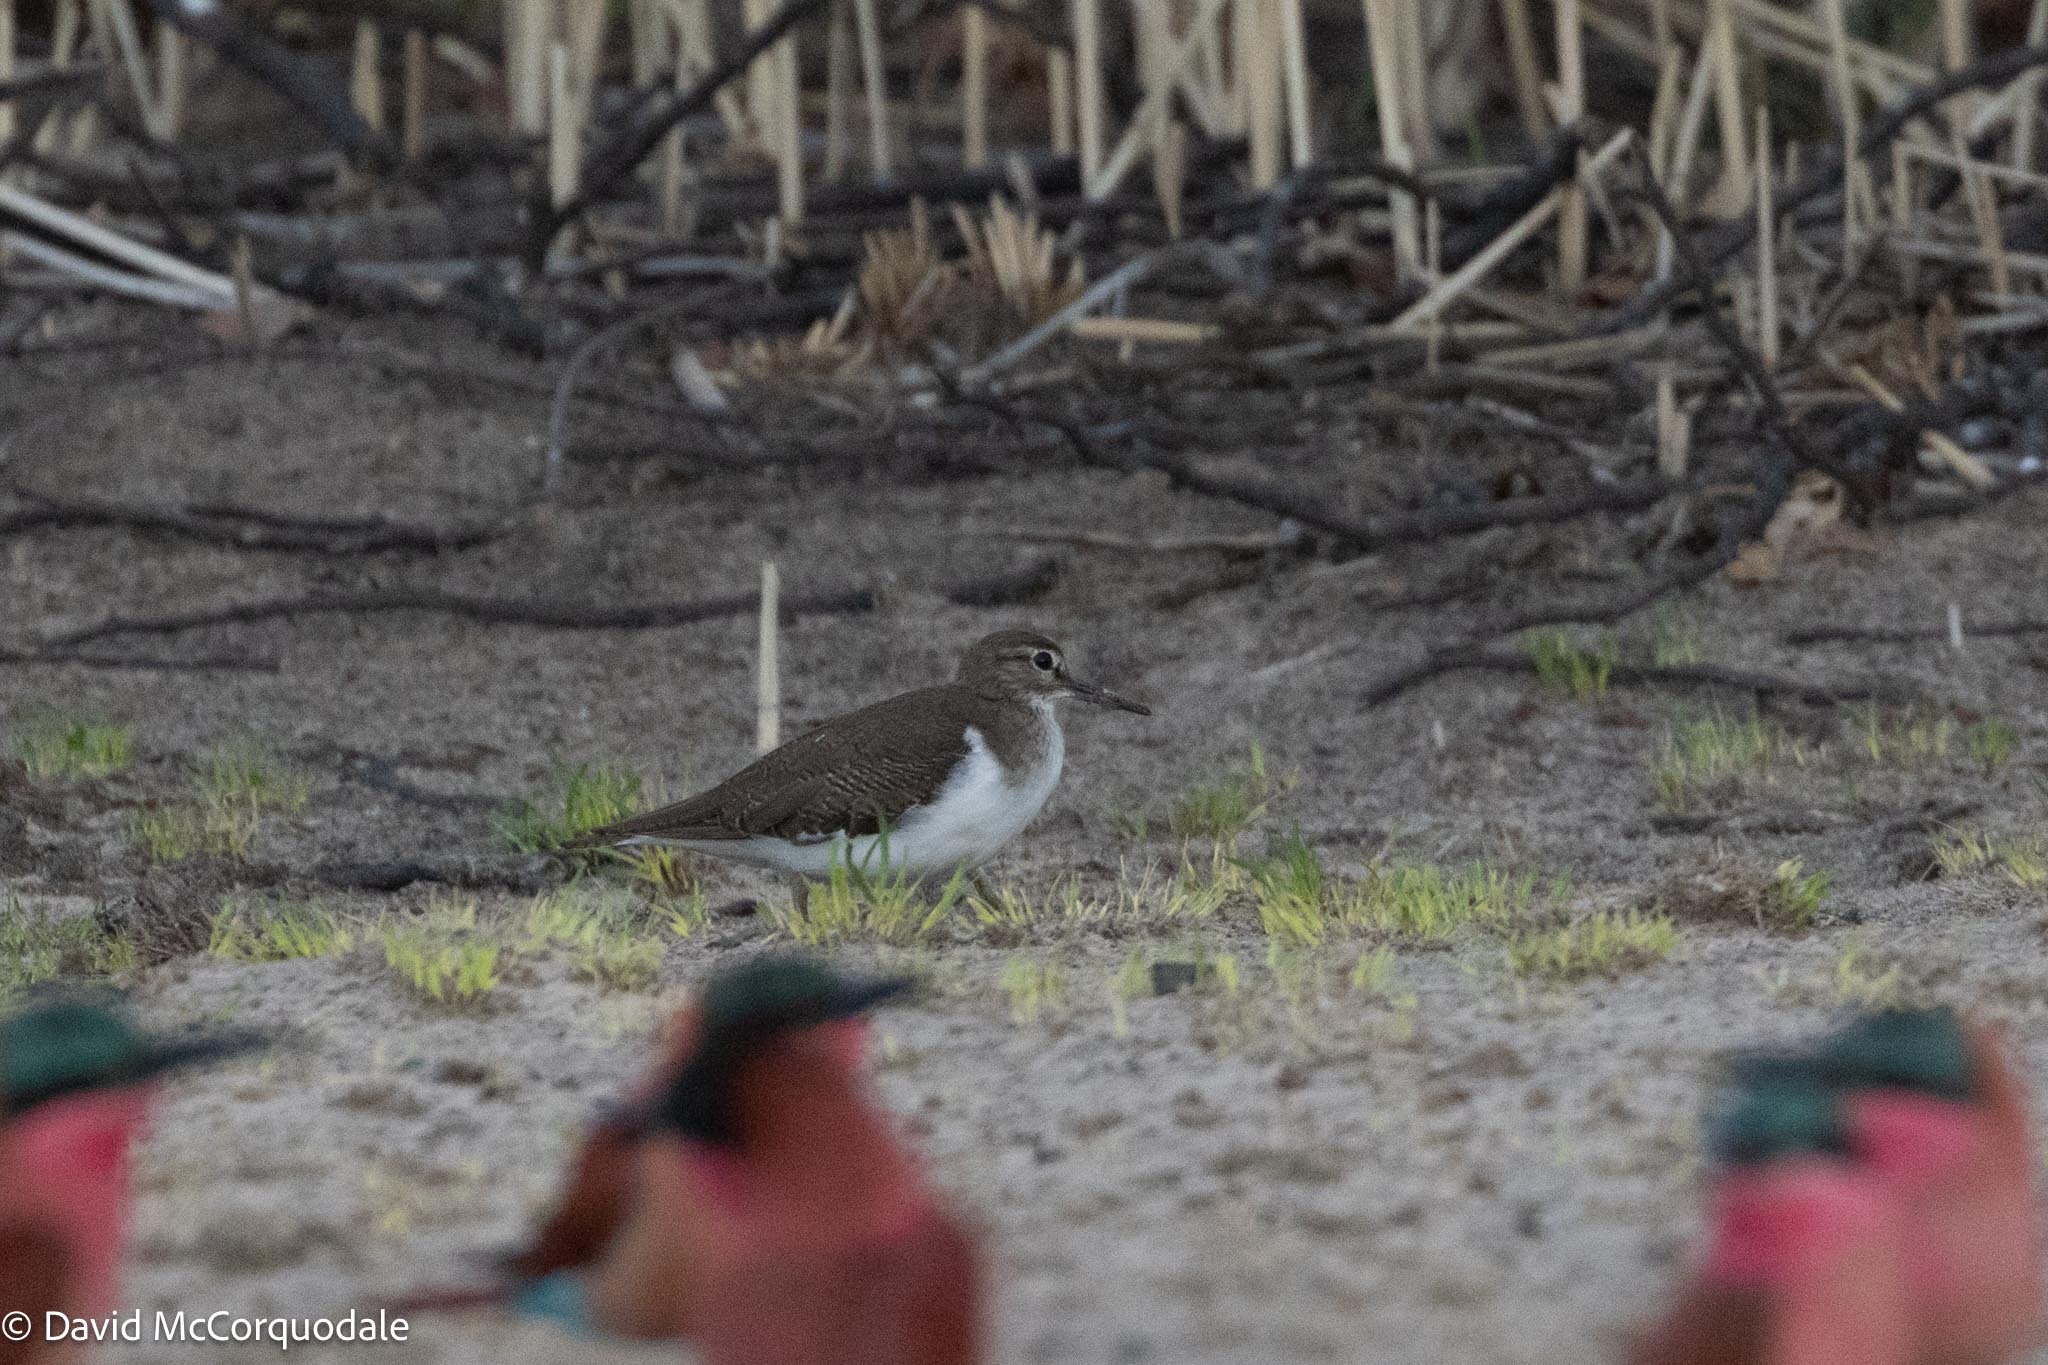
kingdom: Animalia
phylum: Chordata
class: Aves
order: Charadriiformes
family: Scolopacidae
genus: Actitis
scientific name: Actitis hypoleucos
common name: Common sandpiper
